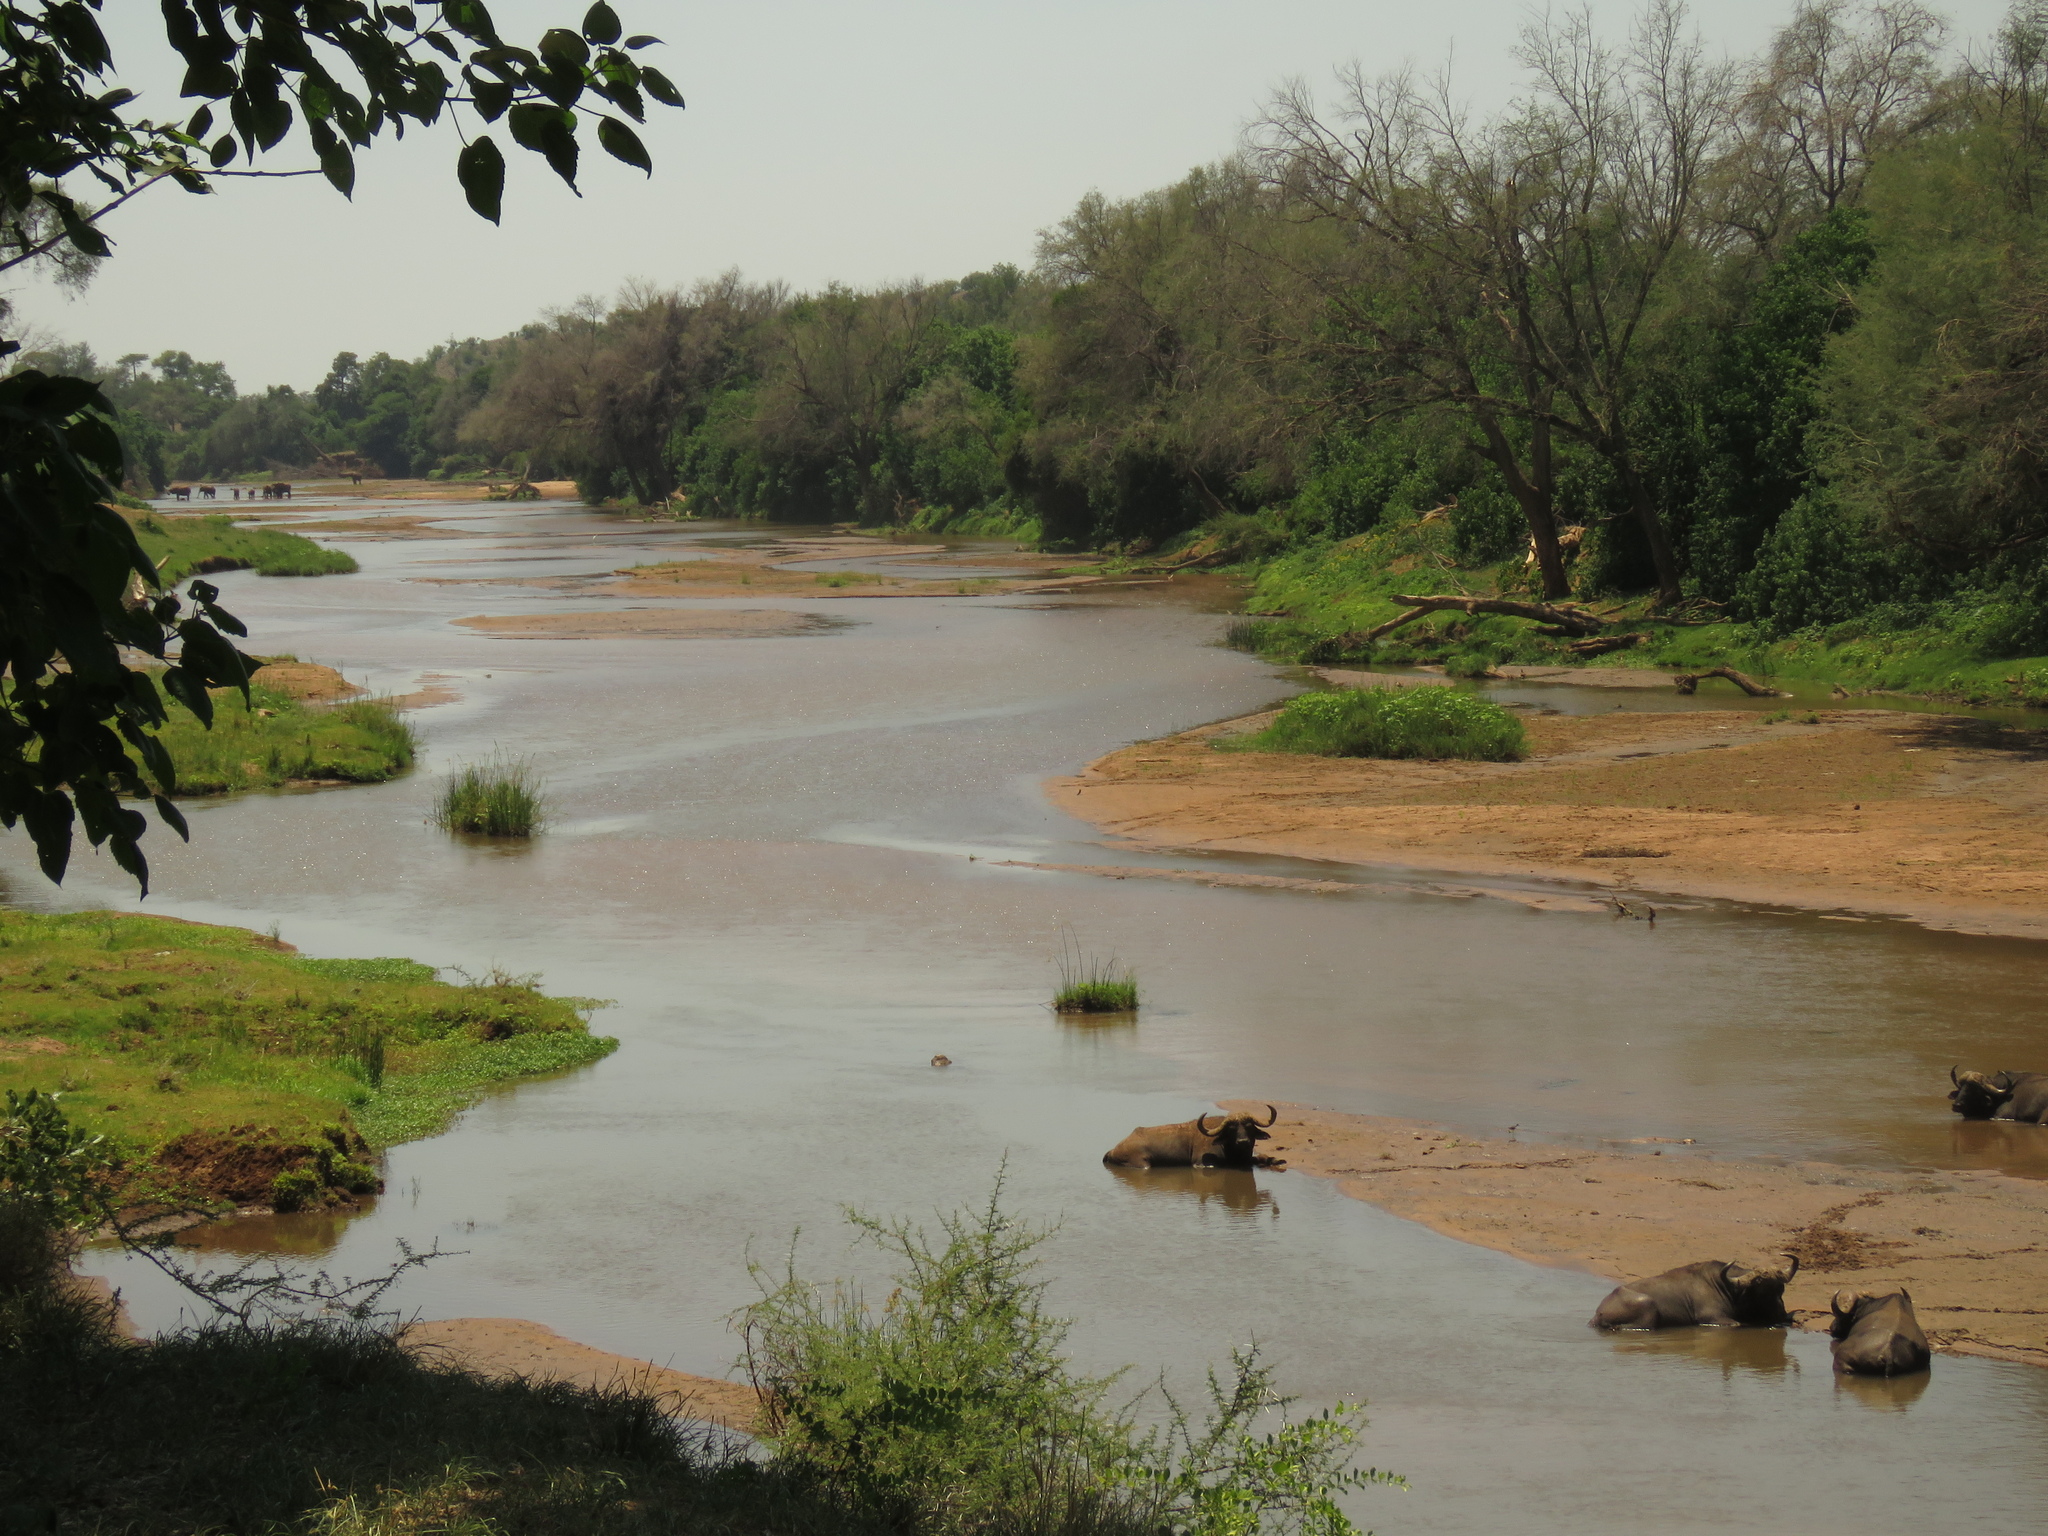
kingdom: Animalia
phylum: Chordata
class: Mammalia
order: Artiodactyla
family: Bovidae
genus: Syncerus
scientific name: Syncerus caffer
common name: African buffalo
